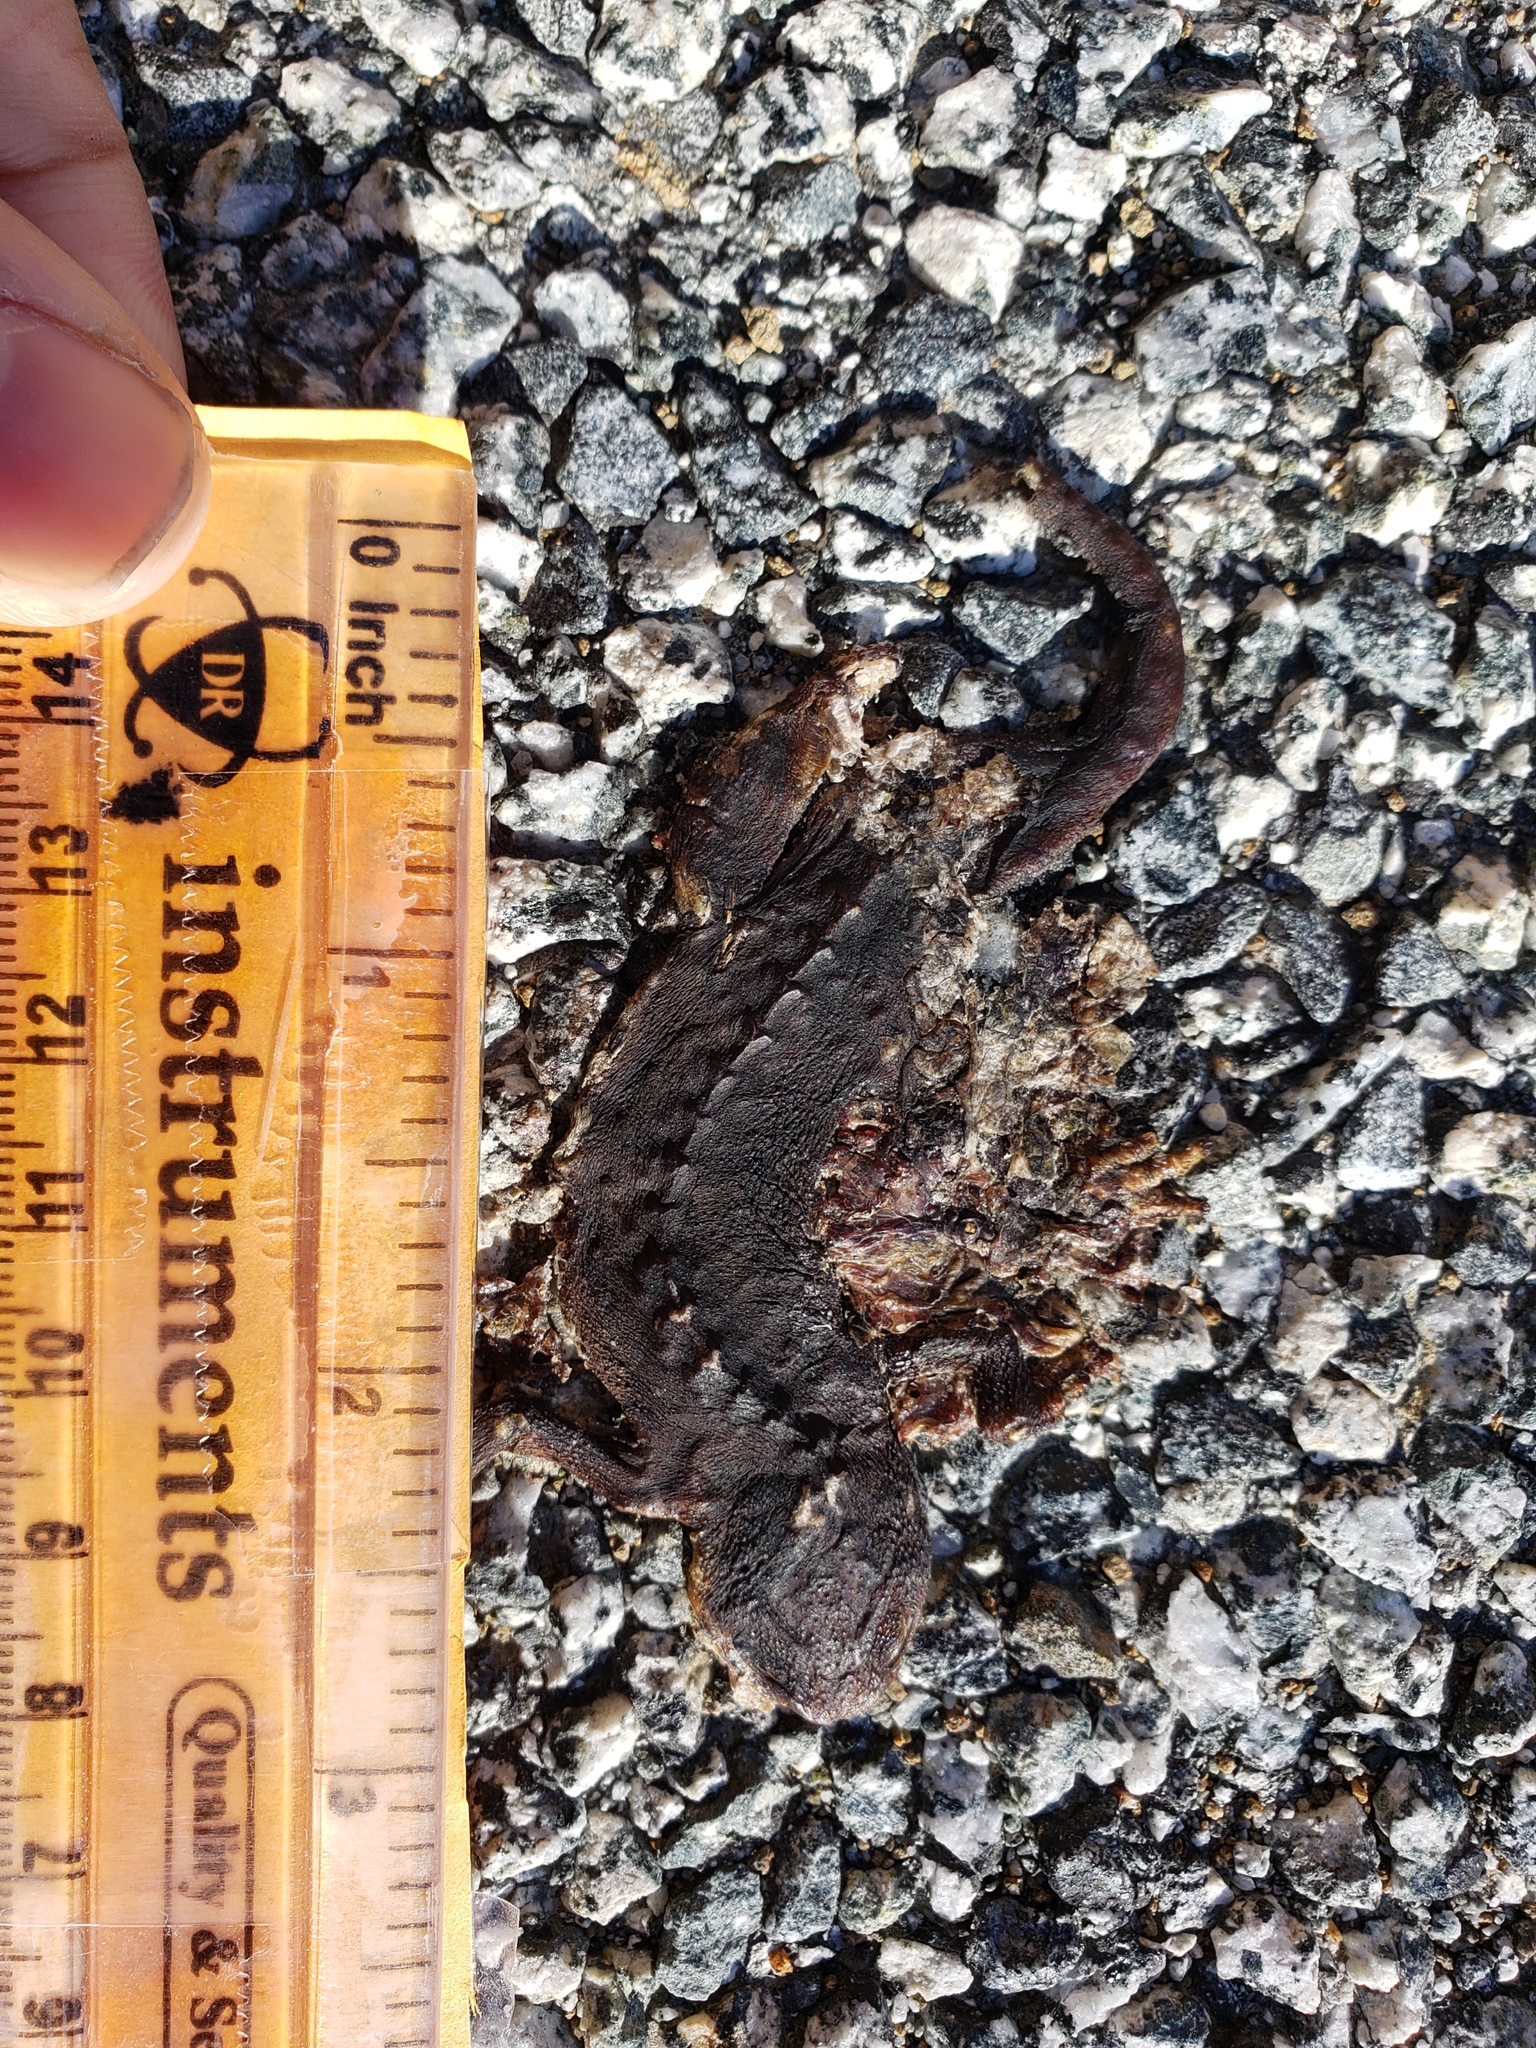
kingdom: Animalia
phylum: Chordata
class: Amphibia
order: Caudata
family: Salamandridae
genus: Taricha
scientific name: Taricha
